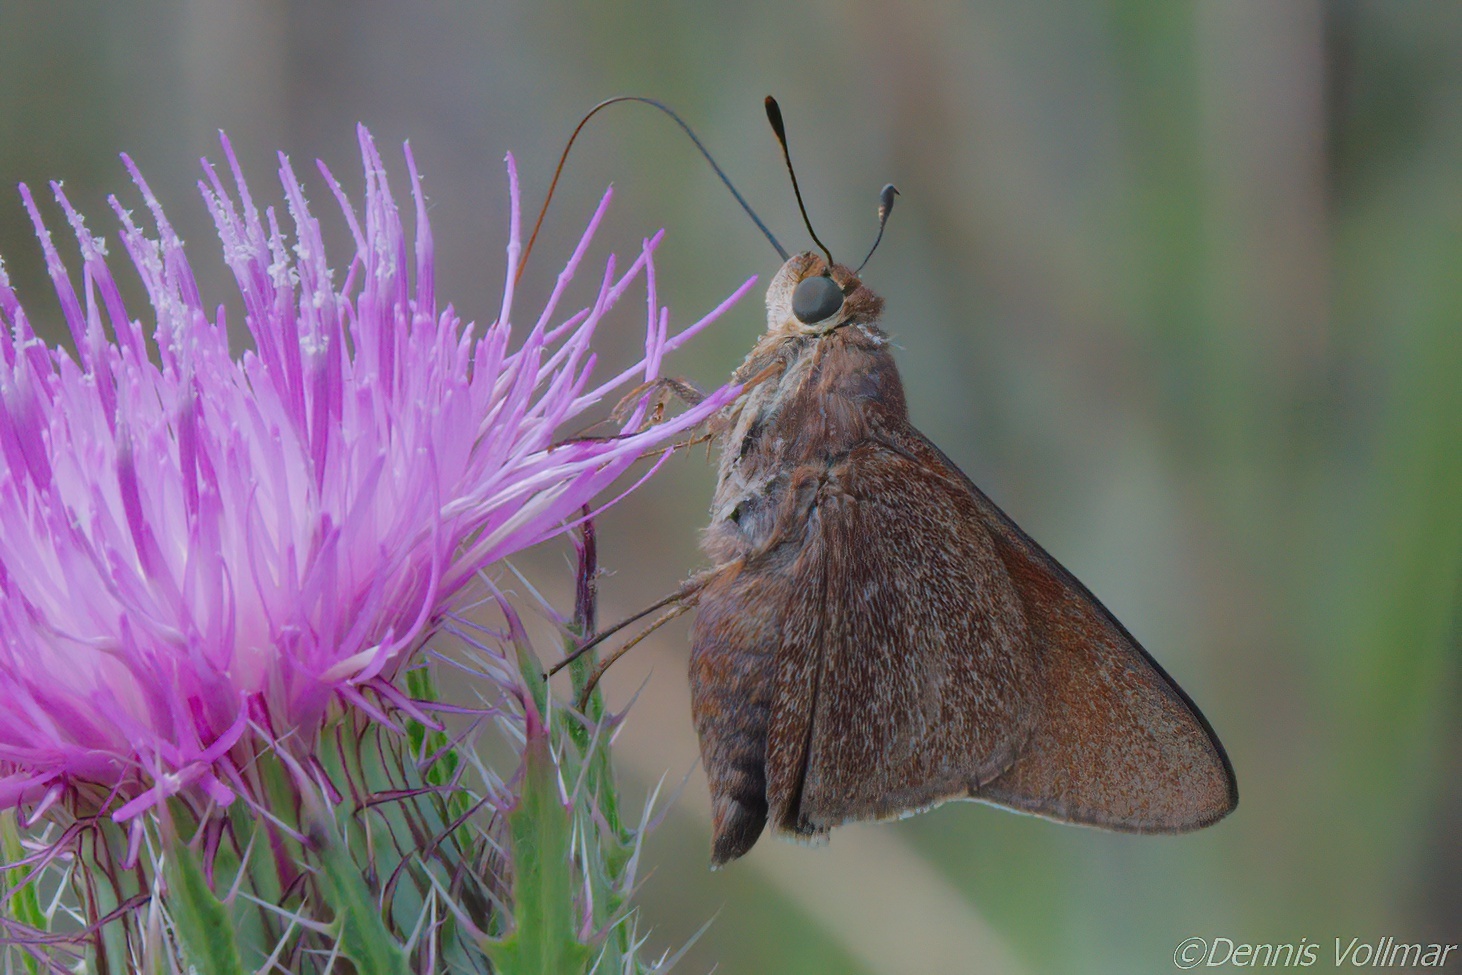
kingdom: Animalia
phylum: Arthropoda
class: Insecta
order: Lepidoptera
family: Hesperiidae
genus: Asbolis
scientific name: Asbolis capucinus
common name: Monk skipper
